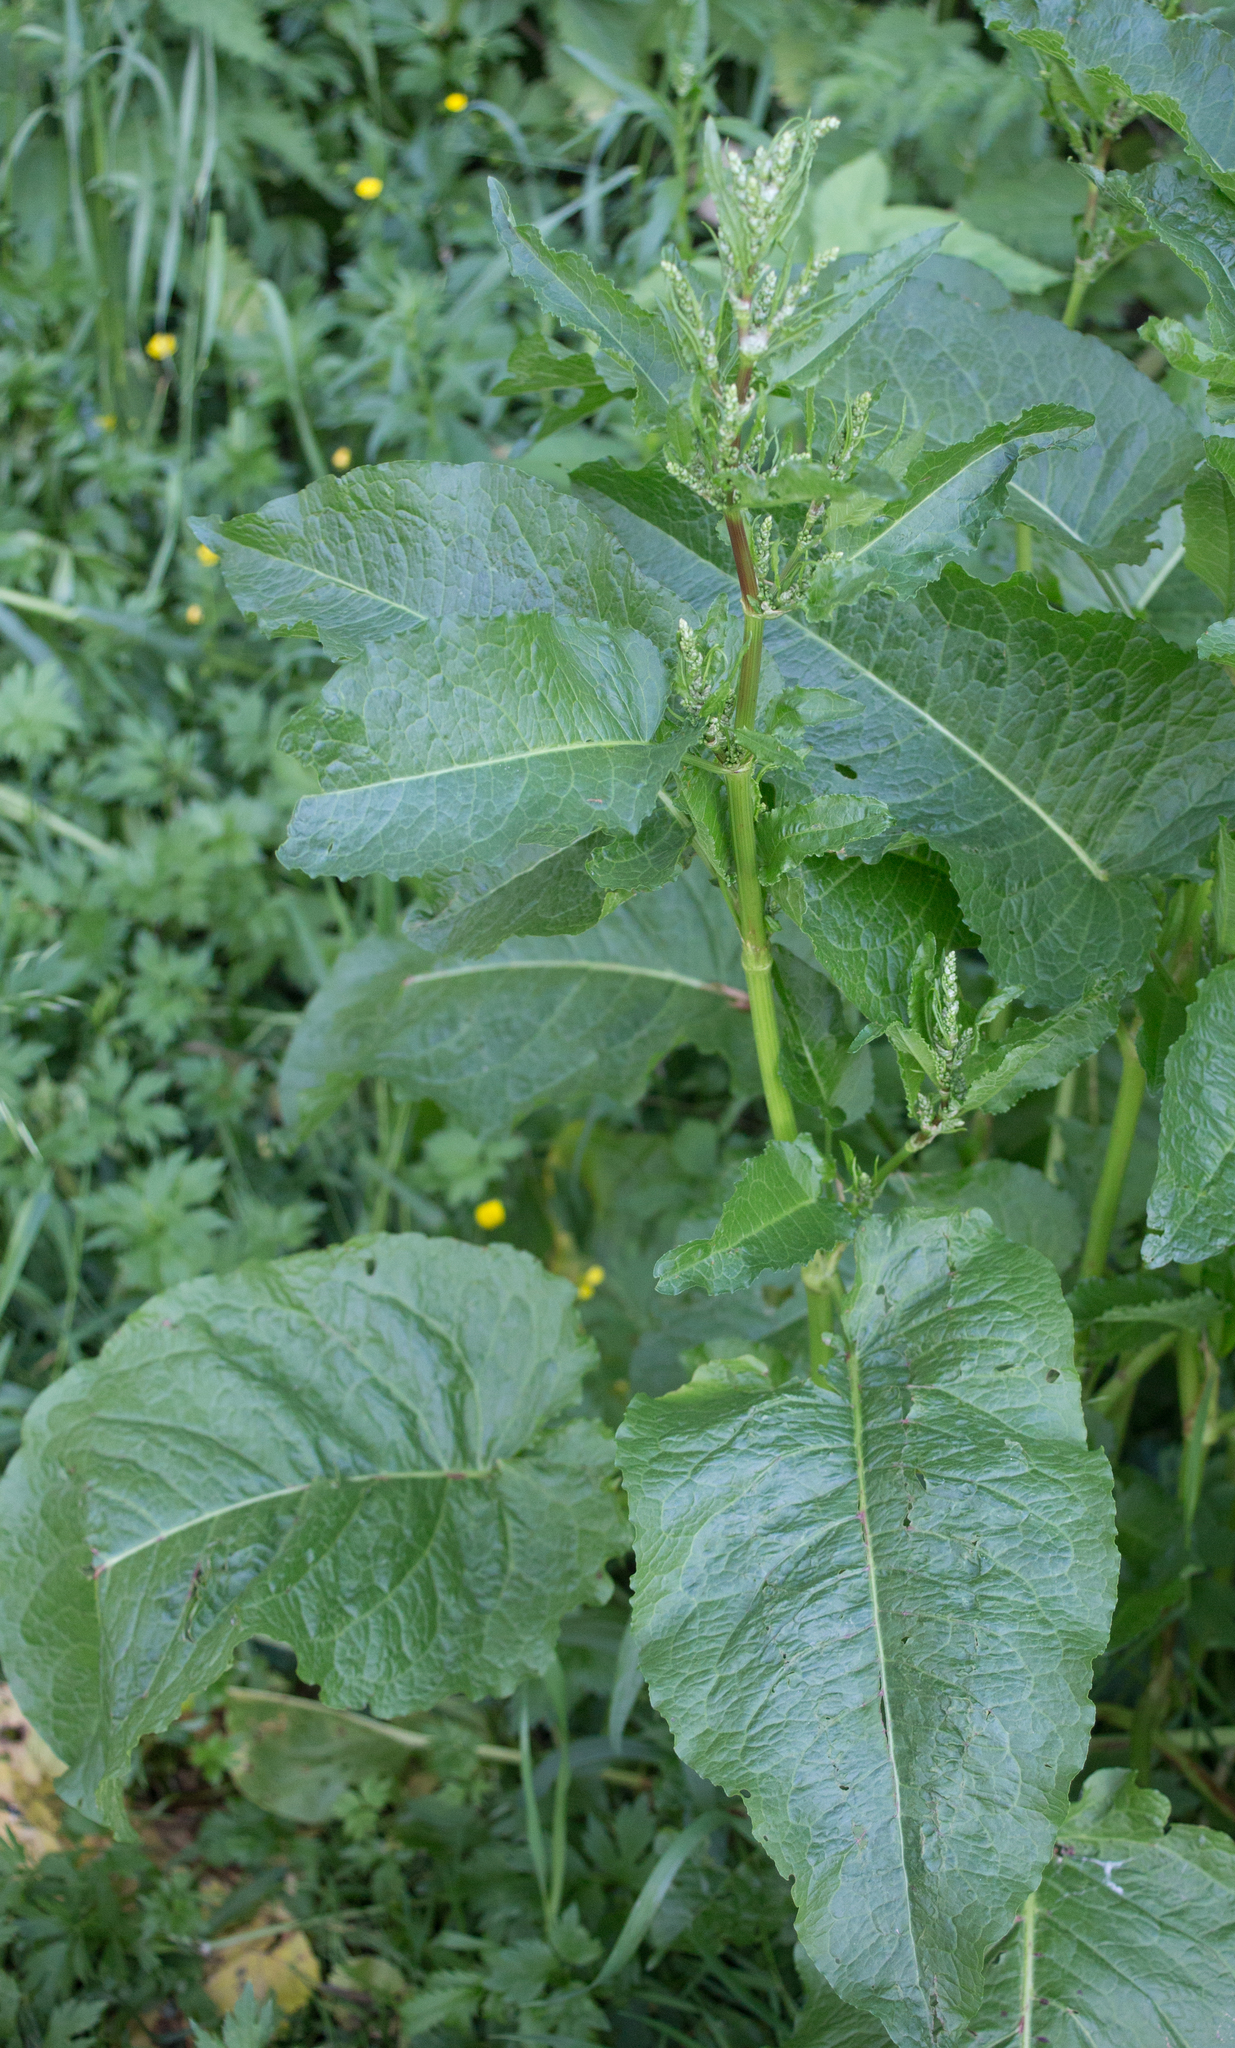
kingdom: Plantae
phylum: Tracheophyta
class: Magnoliopsida
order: Caryophyllales
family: Polygonaceae
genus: Rumex
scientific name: Rumex obtusifolius
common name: Bitter dock
